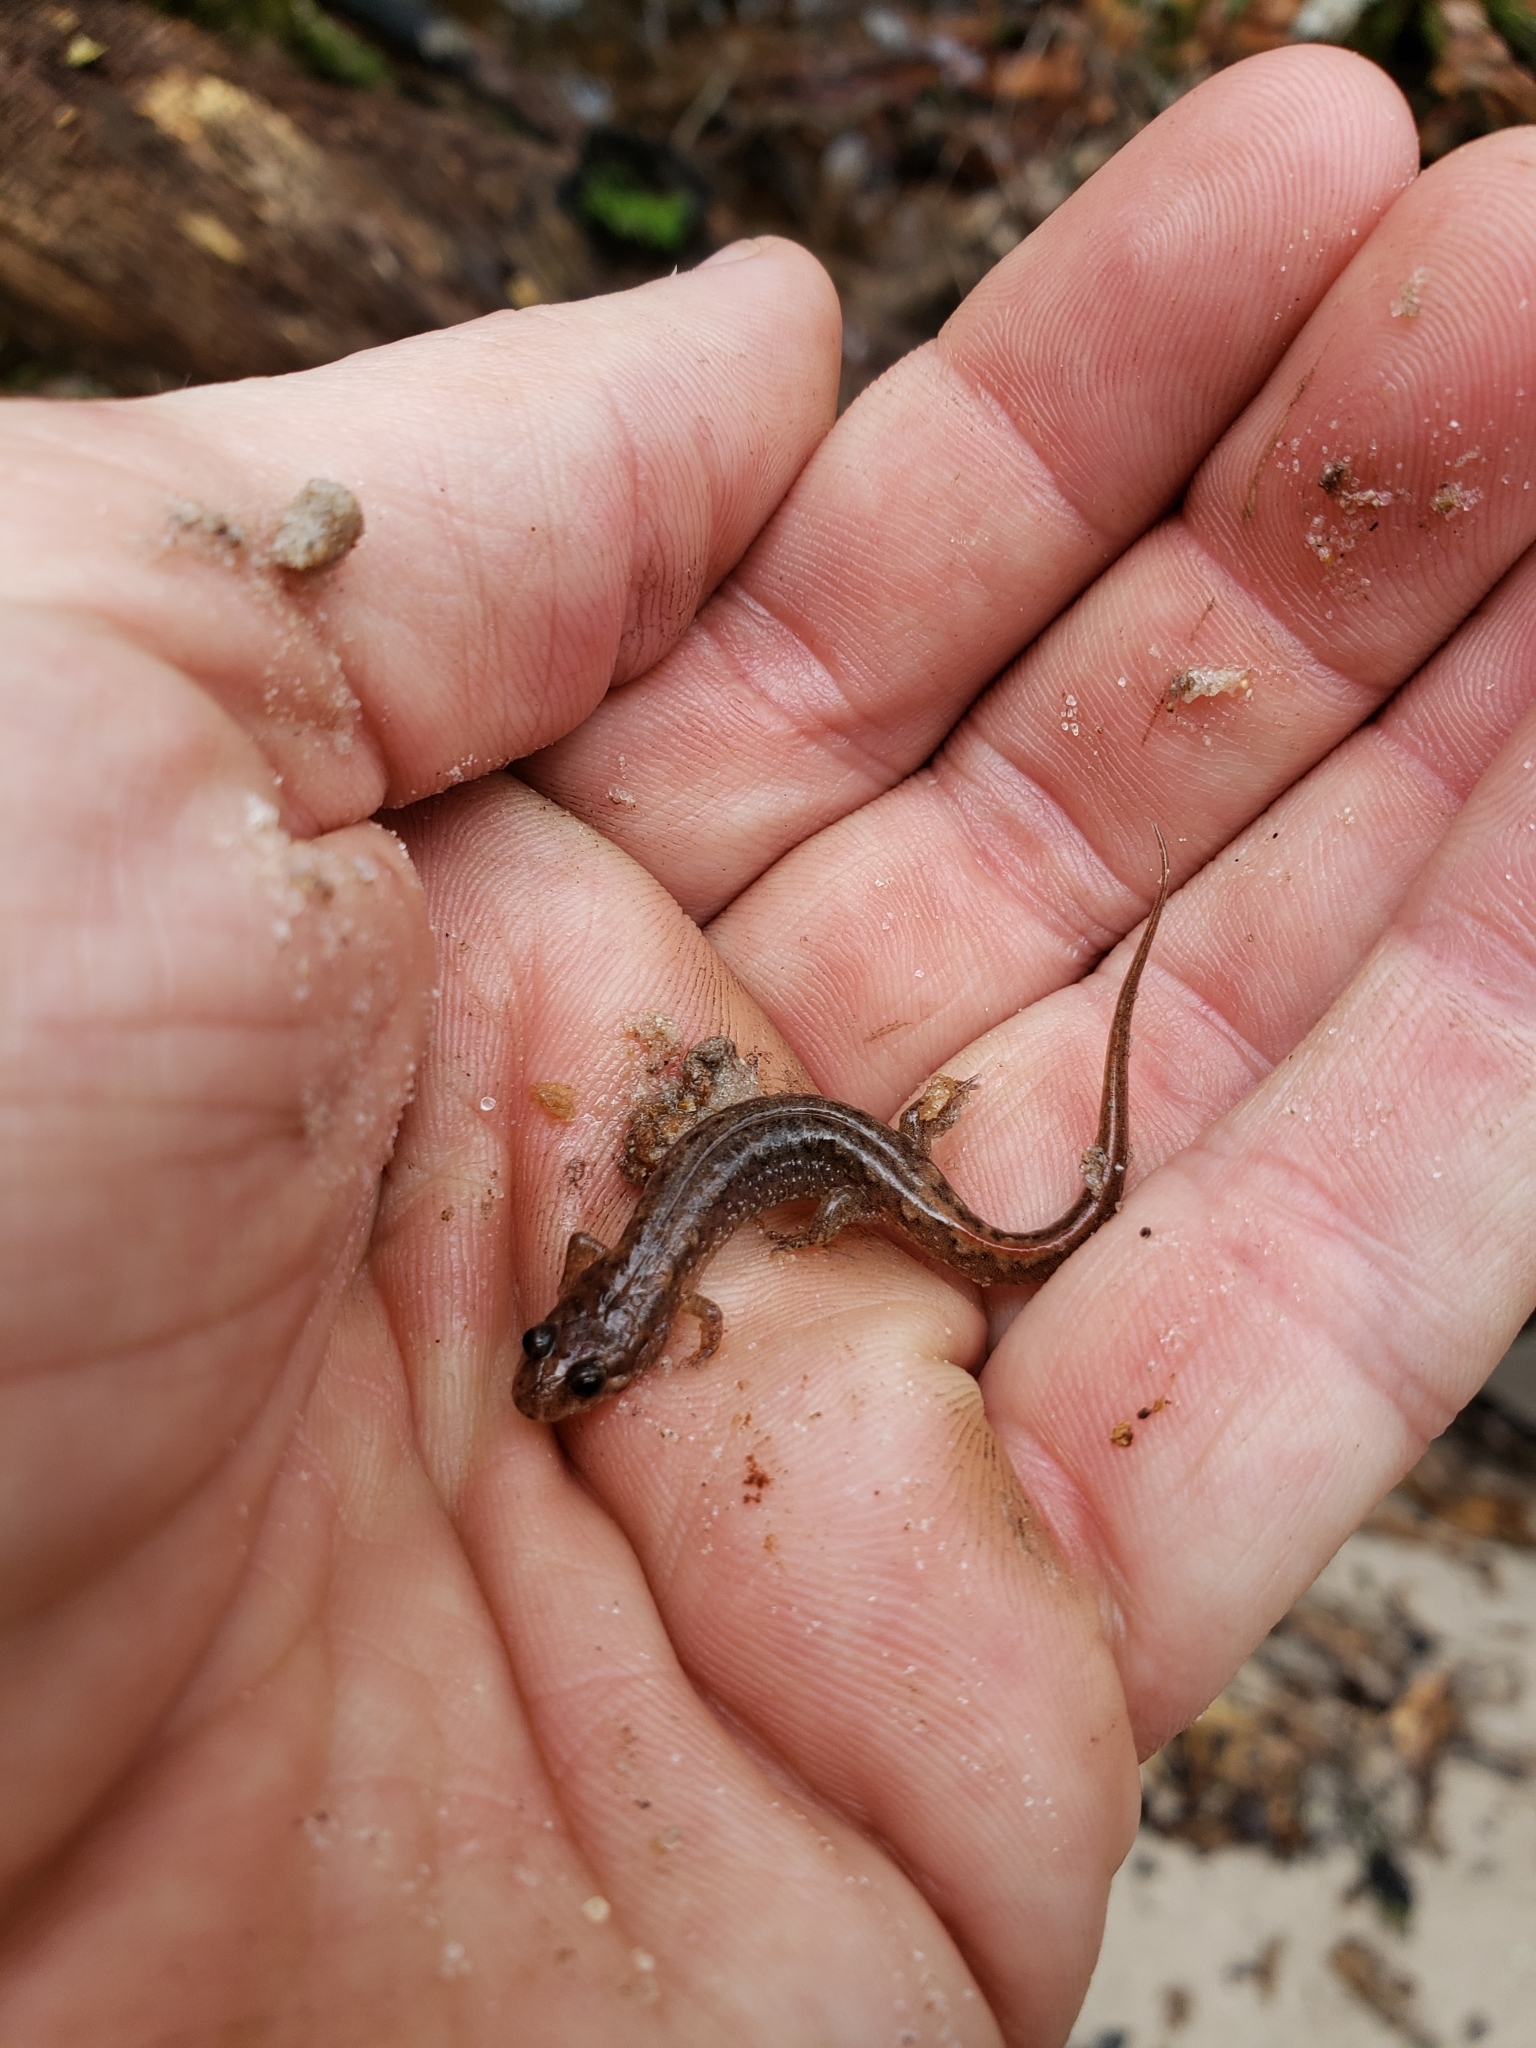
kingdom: Animalia
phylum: Chordata
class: Amphibia
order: Caudata
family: Plethodontidae
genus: Desmognathus
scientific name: Desmognathus
